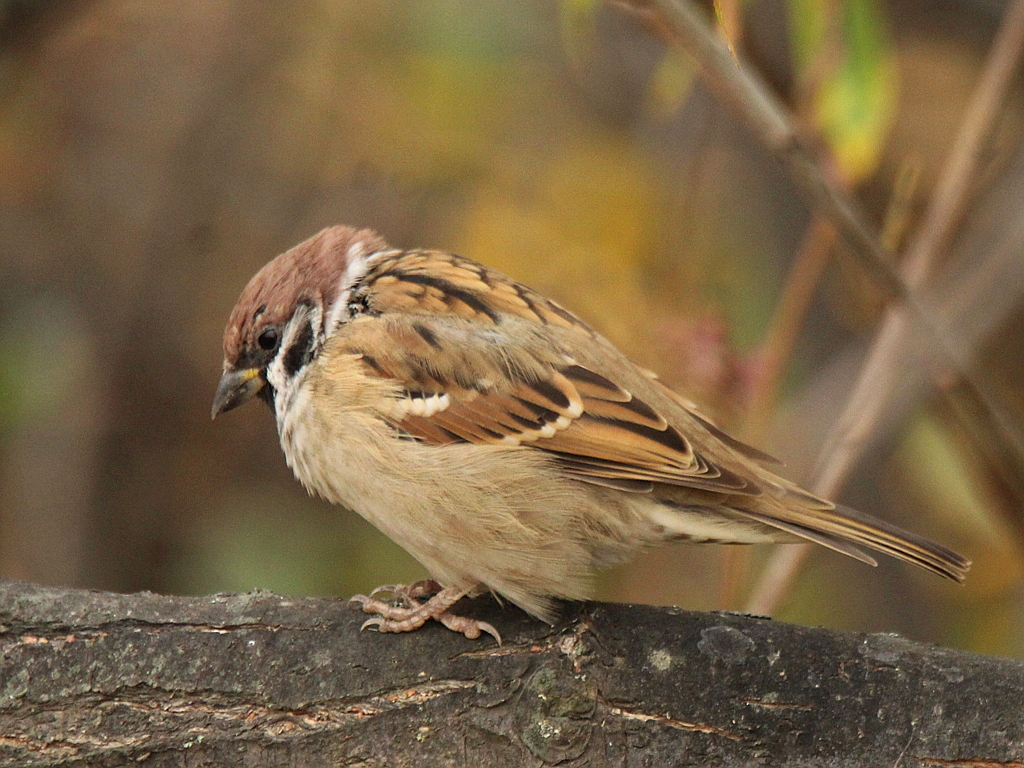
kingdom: Animalia
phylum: Chordata
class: Aves
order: Passeriformes
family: Passeridae
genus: Passer
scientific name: Passer montanus
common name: Eurasian tree sparrow
